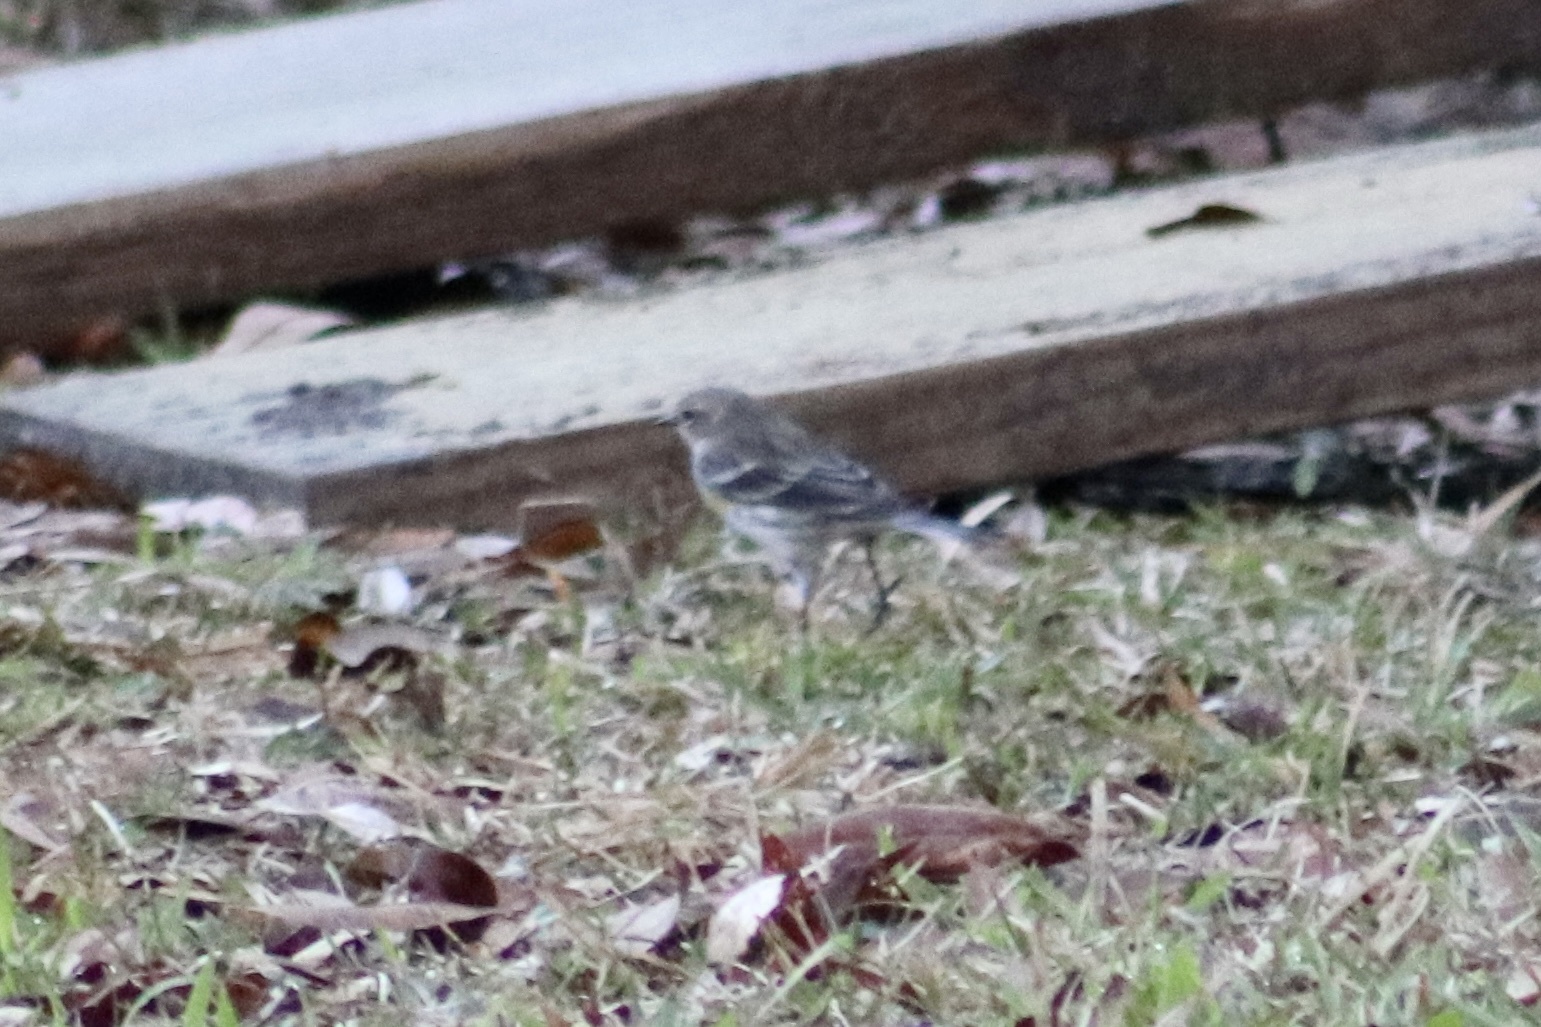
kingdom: Animalia
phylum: Chordata
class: Aves
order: Passeriformes
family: Parulidae
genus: Setophaga
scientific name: Setophaga coronata
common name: Myrtle warbler
